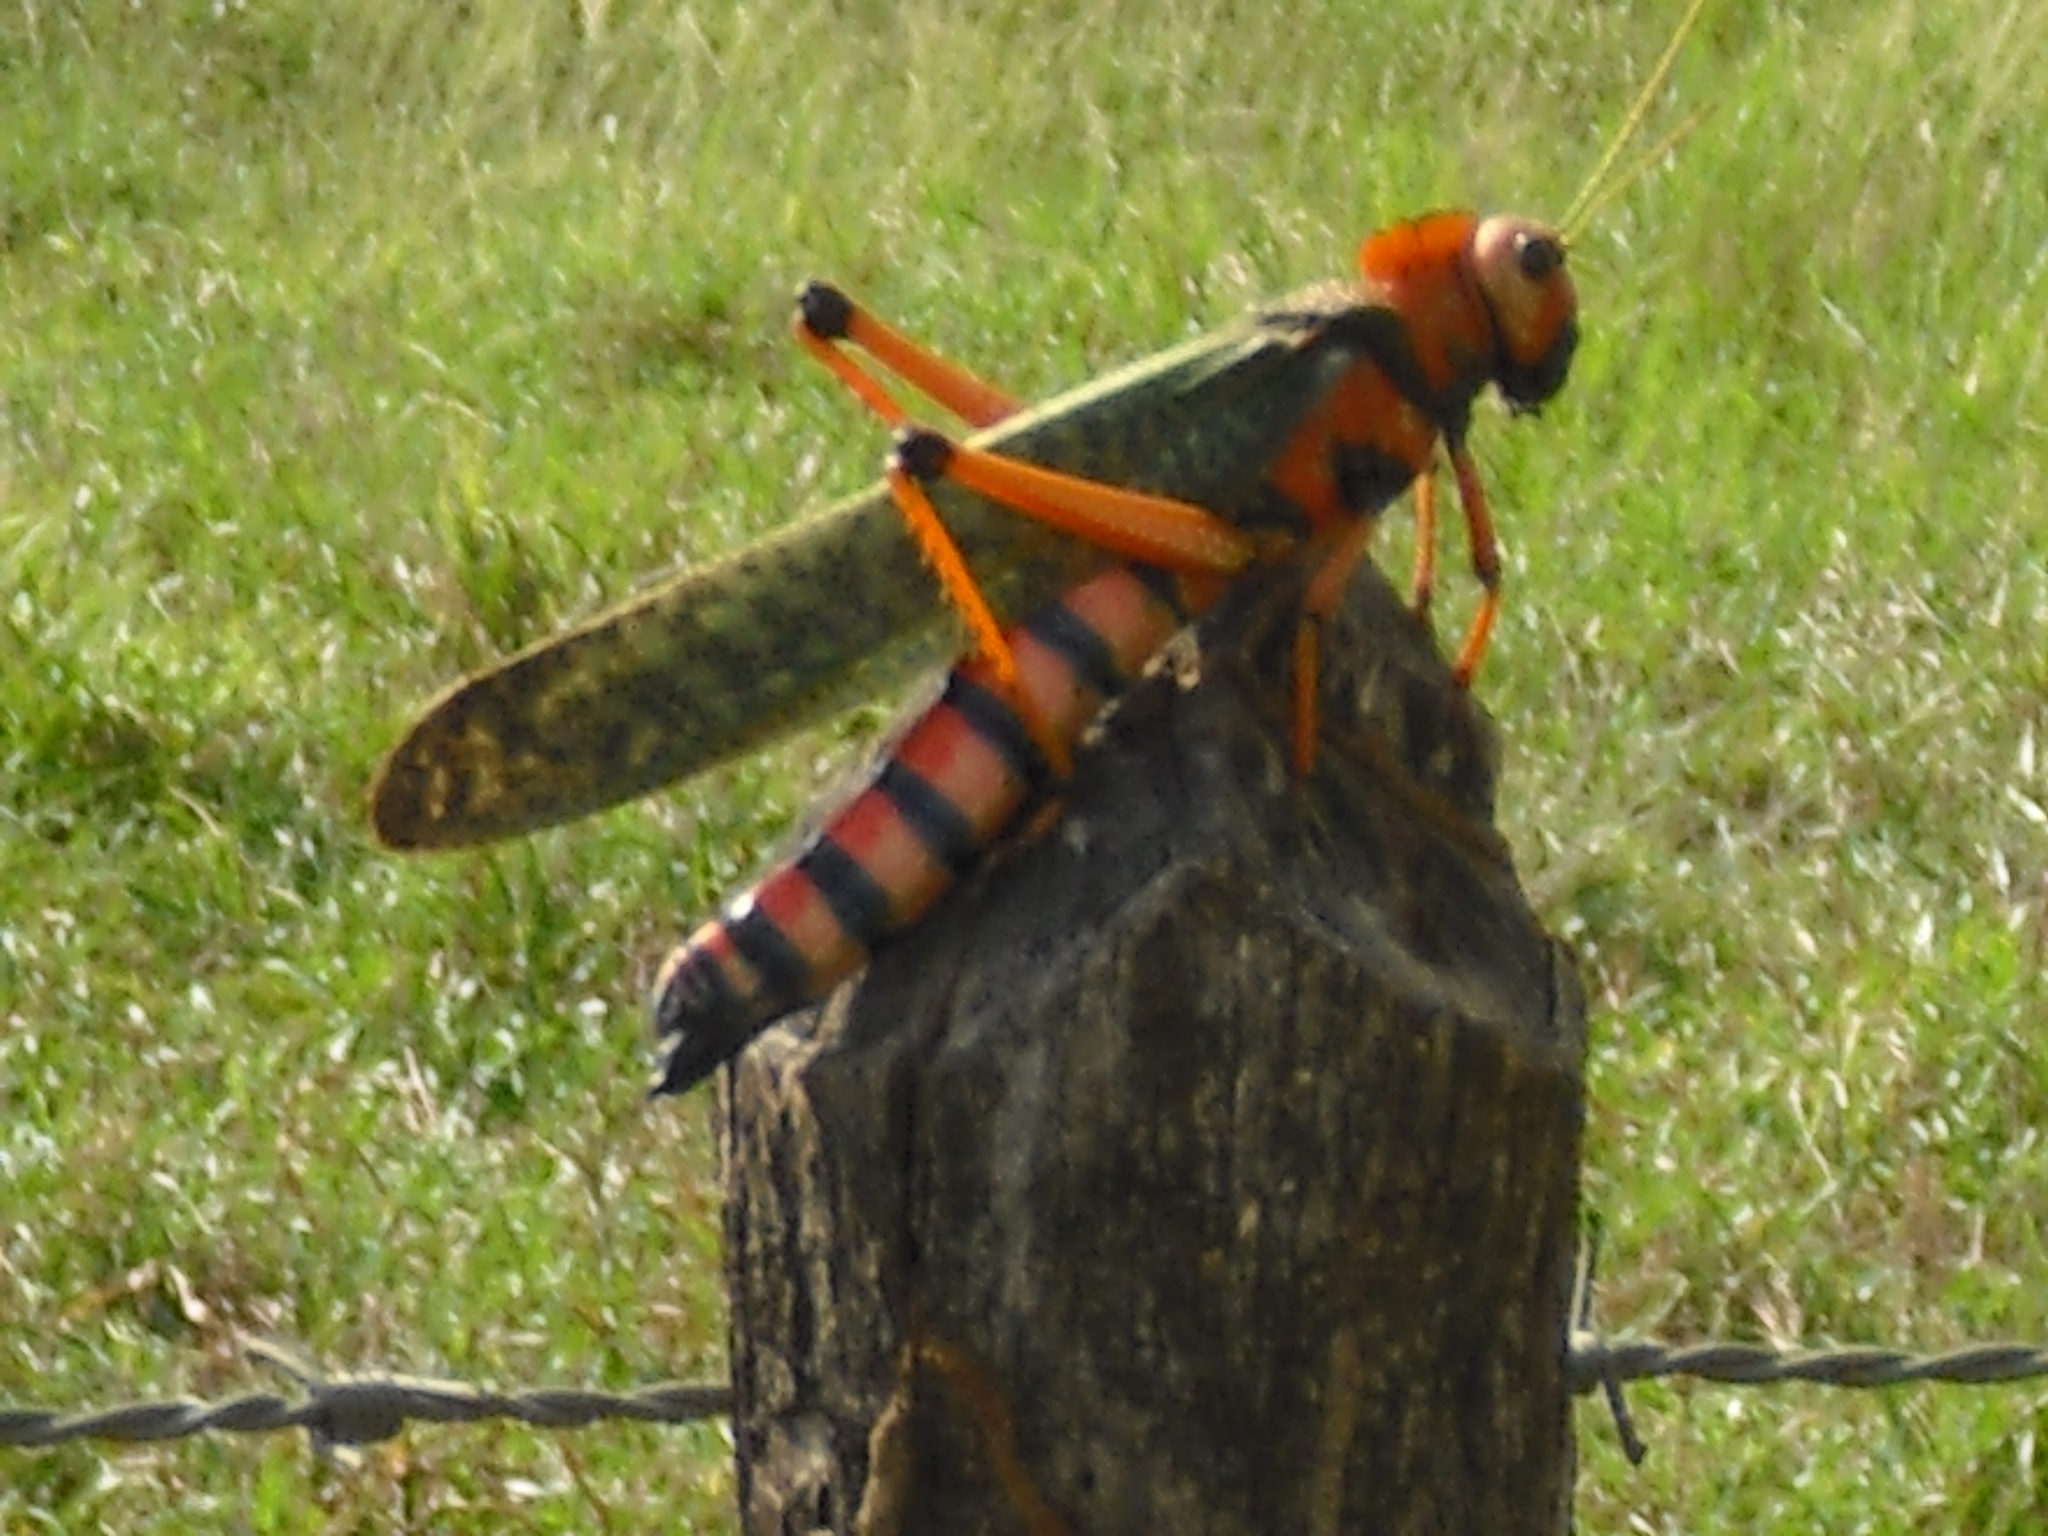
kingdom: Animalia
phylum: Arthropoda
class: Insecta
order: Orthoptera
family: Romaleidae
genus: Tropidacris
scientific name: Tropidacris collaris
